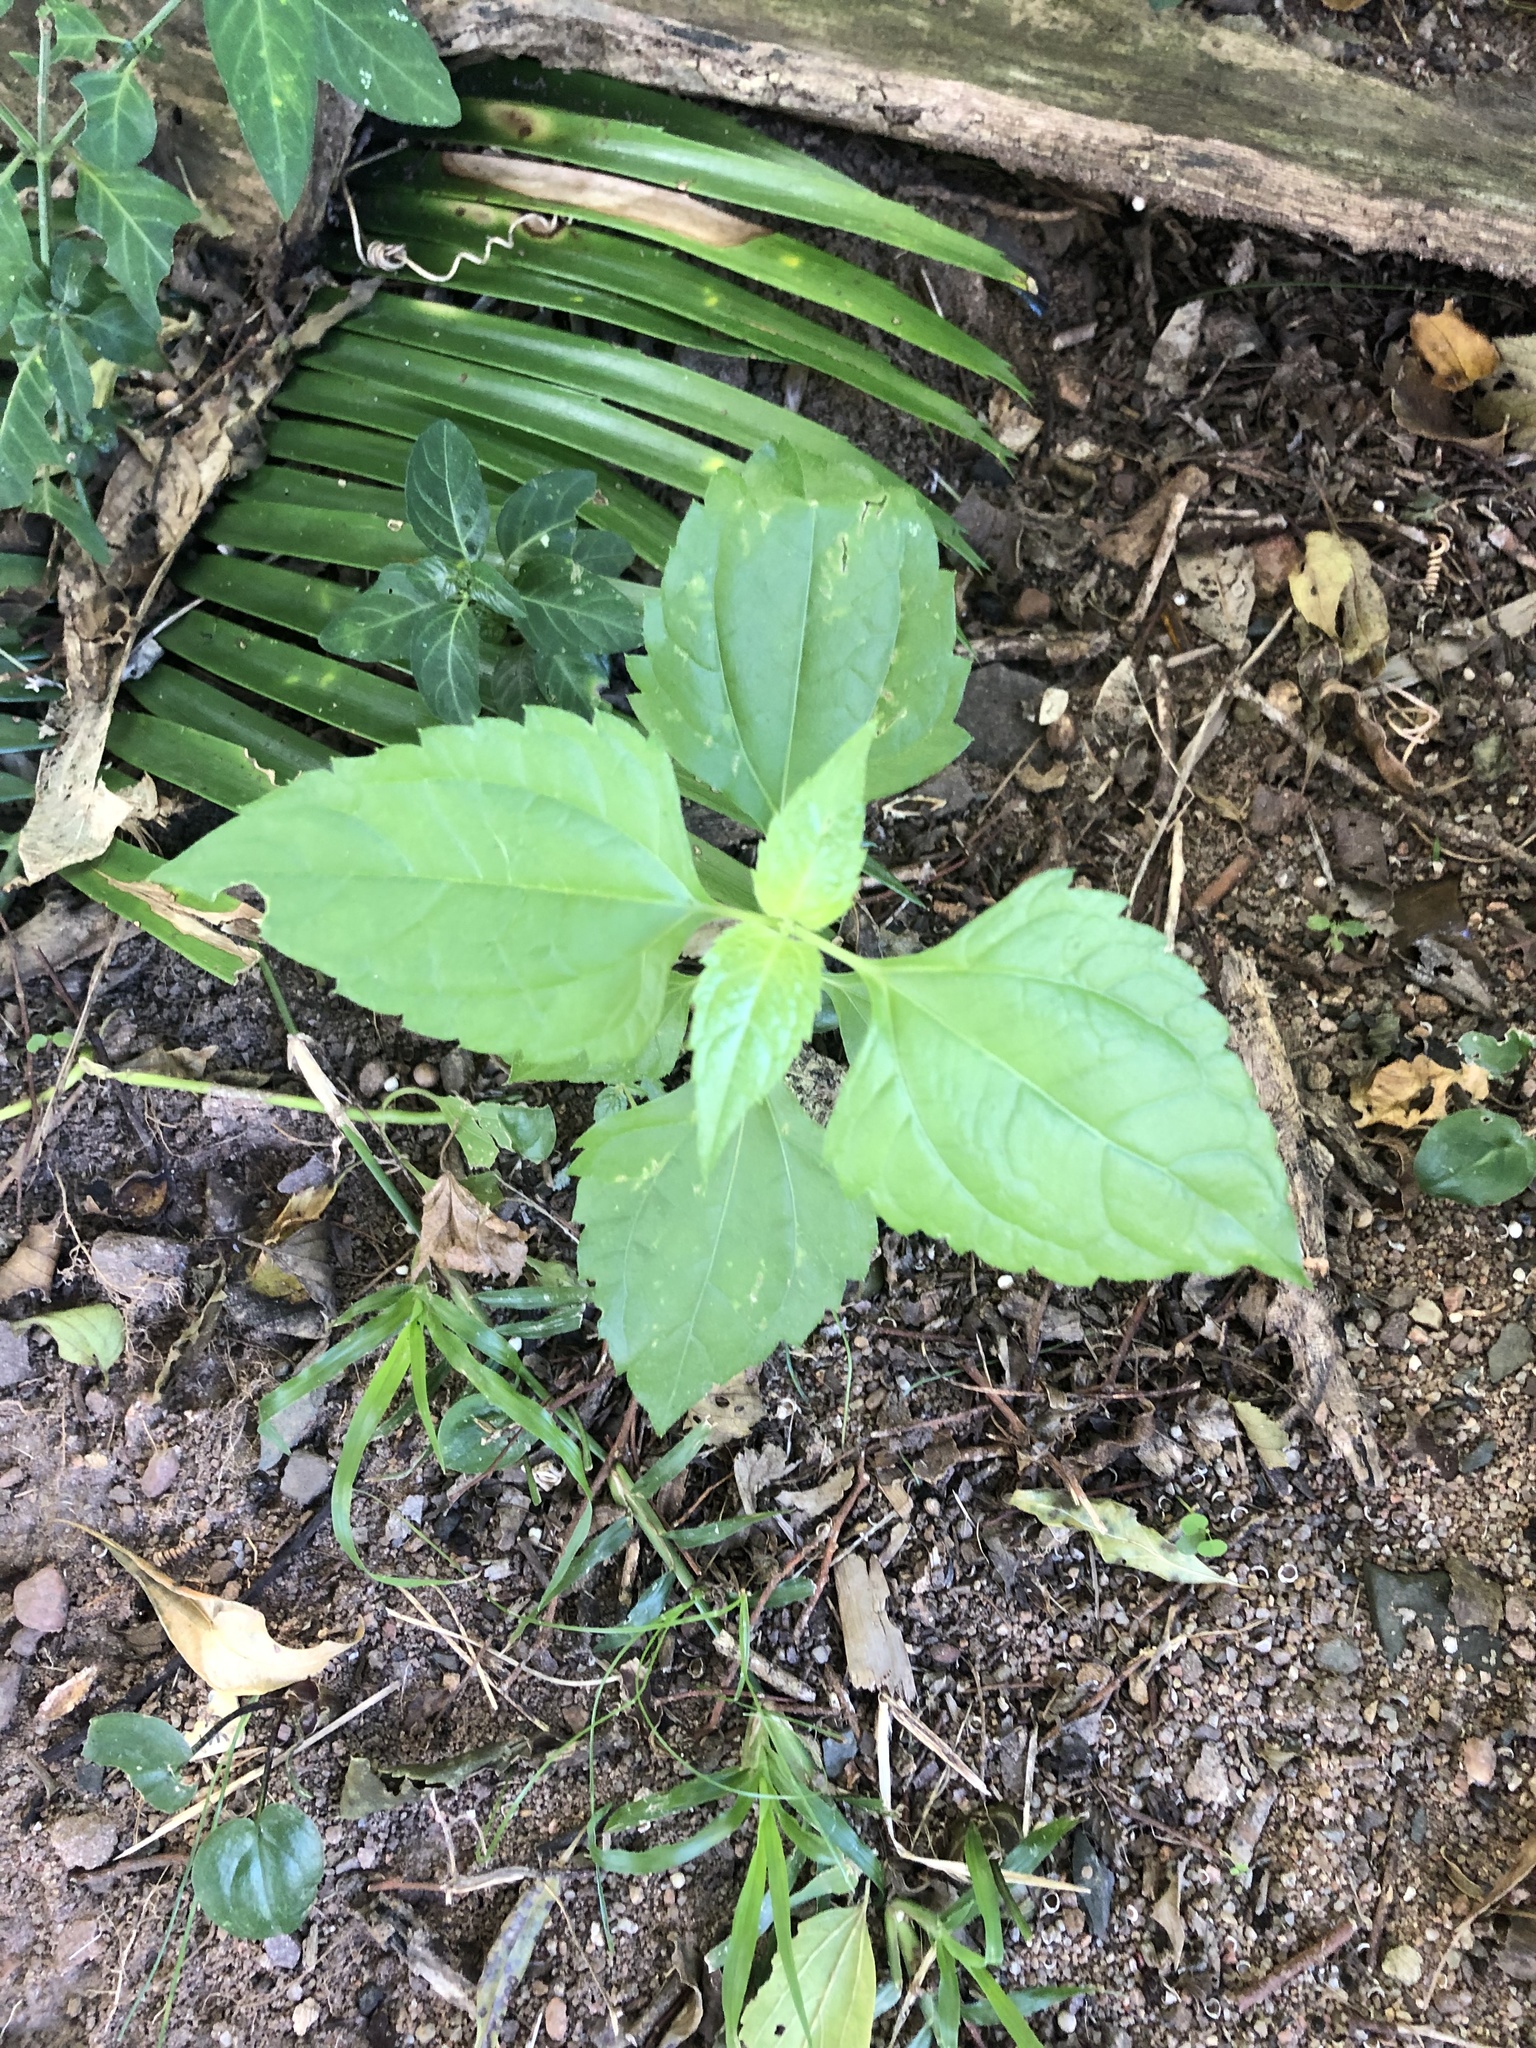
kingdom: Plantae
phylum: Tracheophyta
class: Magnoliopsida
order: Asterales
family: Asteraceae
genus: Chromolaena
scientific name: Chromolaena odorata
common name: Siamweed
